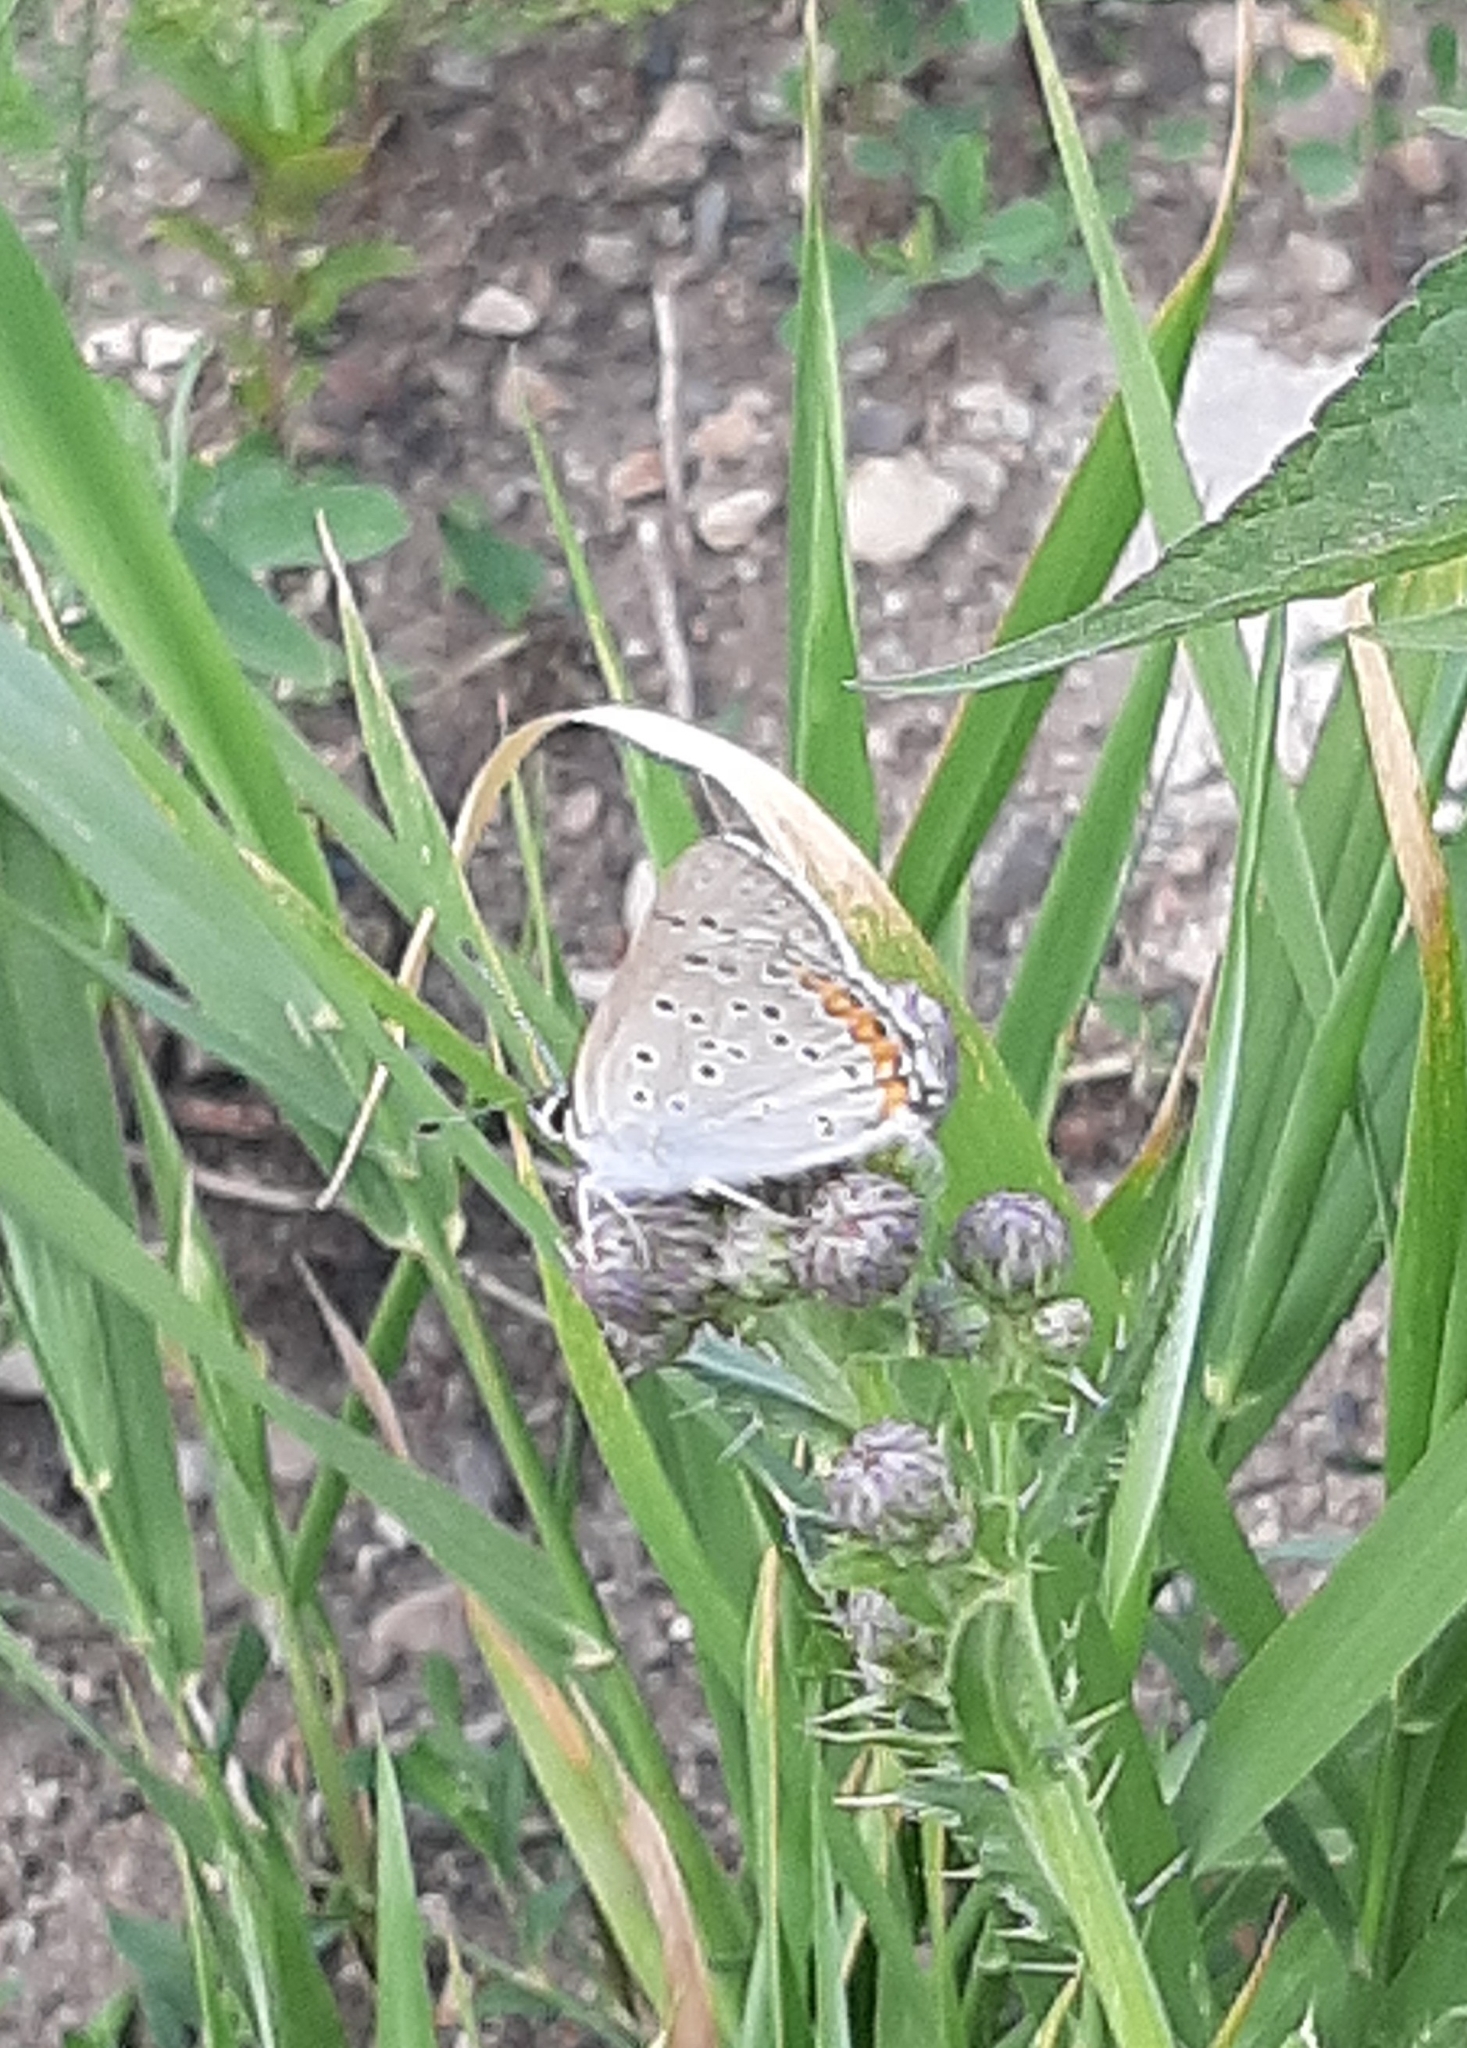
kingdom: Animalia
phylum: Arthropoda
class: Insecta
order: Lepidoptera
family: Lycaenidae
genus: Tharsalea
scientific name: Tharsalea dione
